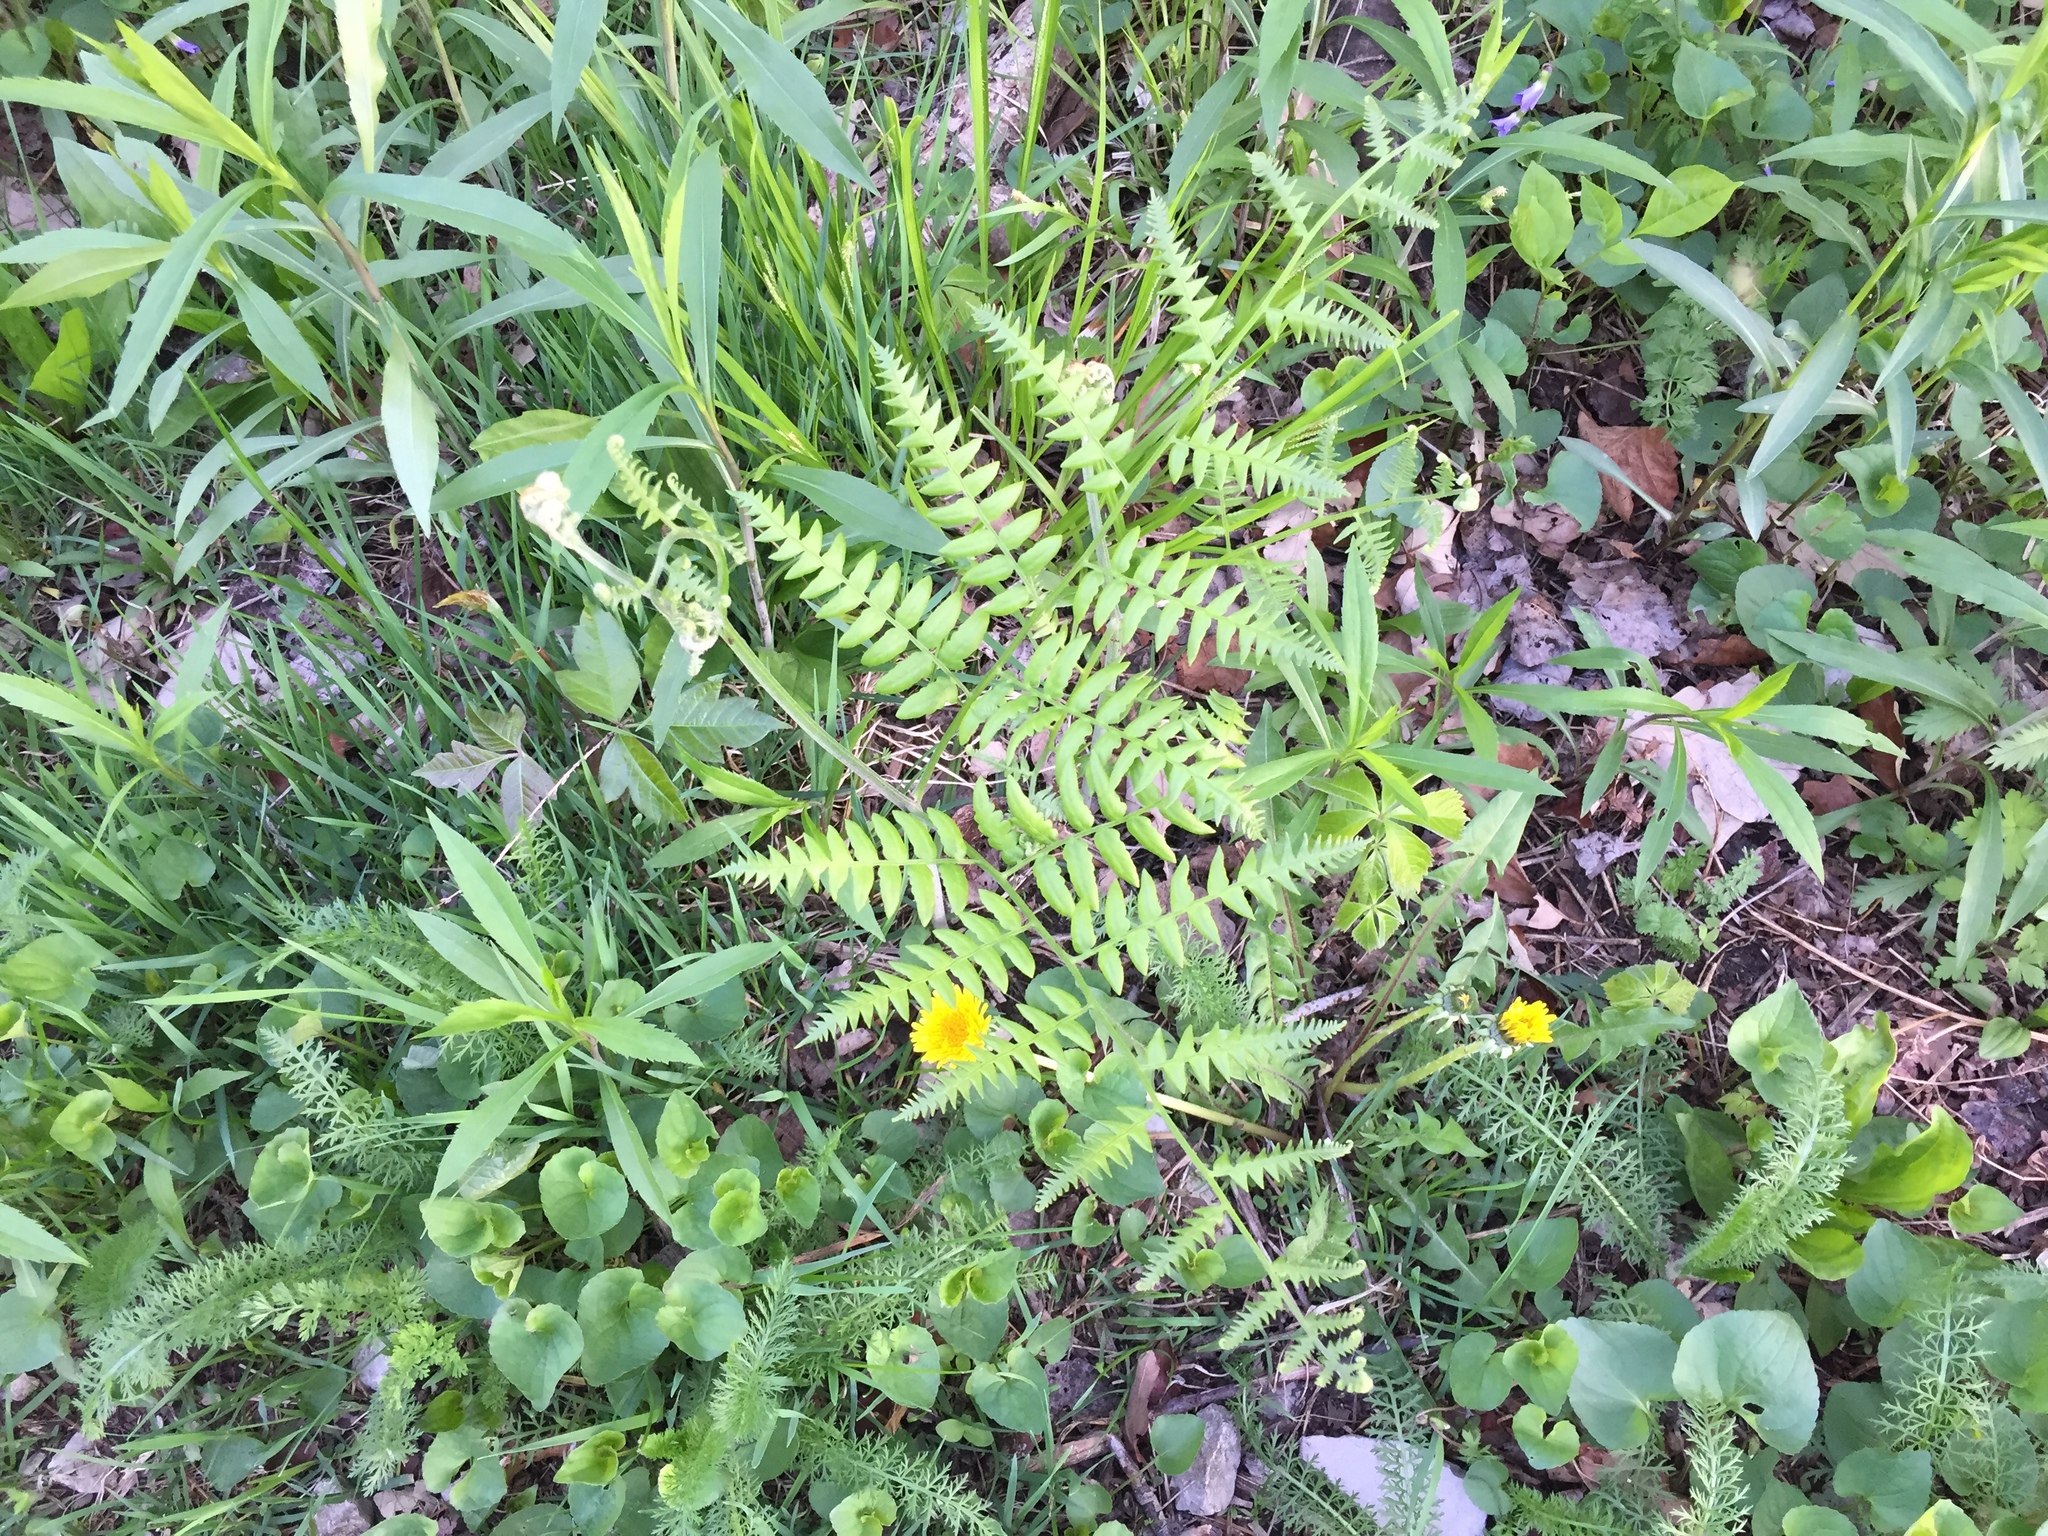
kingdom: Plantae
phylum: Tracheophyta
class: Polypodiopsida
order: Polypodiales
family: Dennstaedtiaceae
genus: Pteridium
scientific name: Pteridium aquilinum
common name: Bracken
